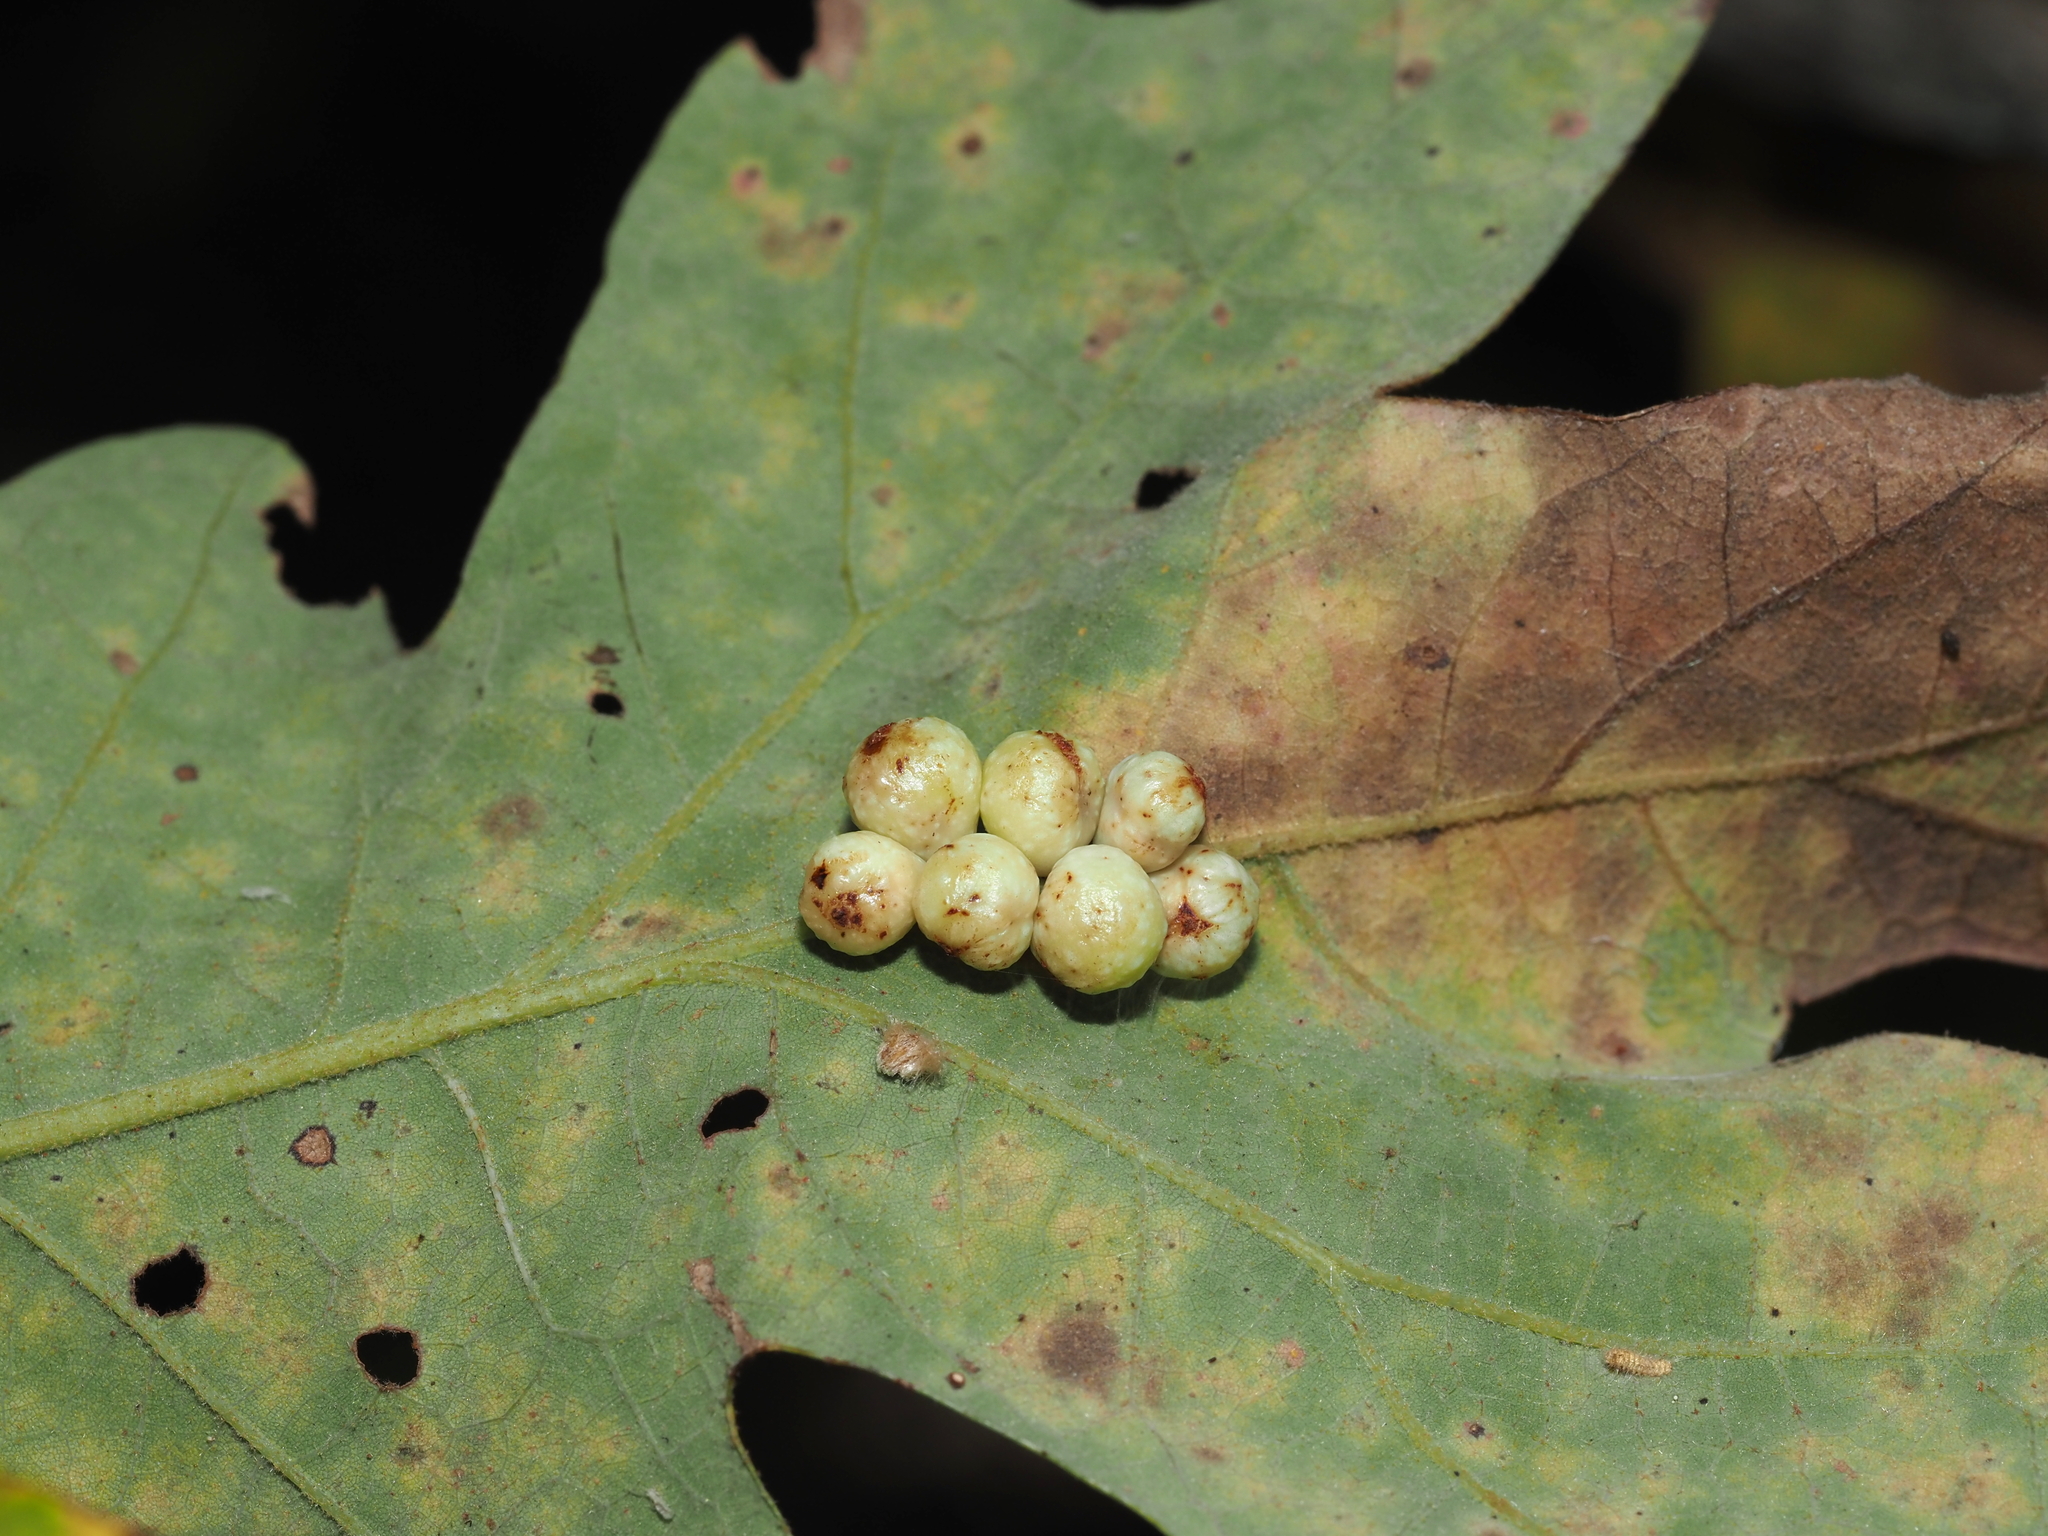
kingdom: Animalia
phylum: Arthropoda
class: Insecta
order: Hymenoptera
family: Cynipidae
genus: Andricus
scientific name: Andricus
